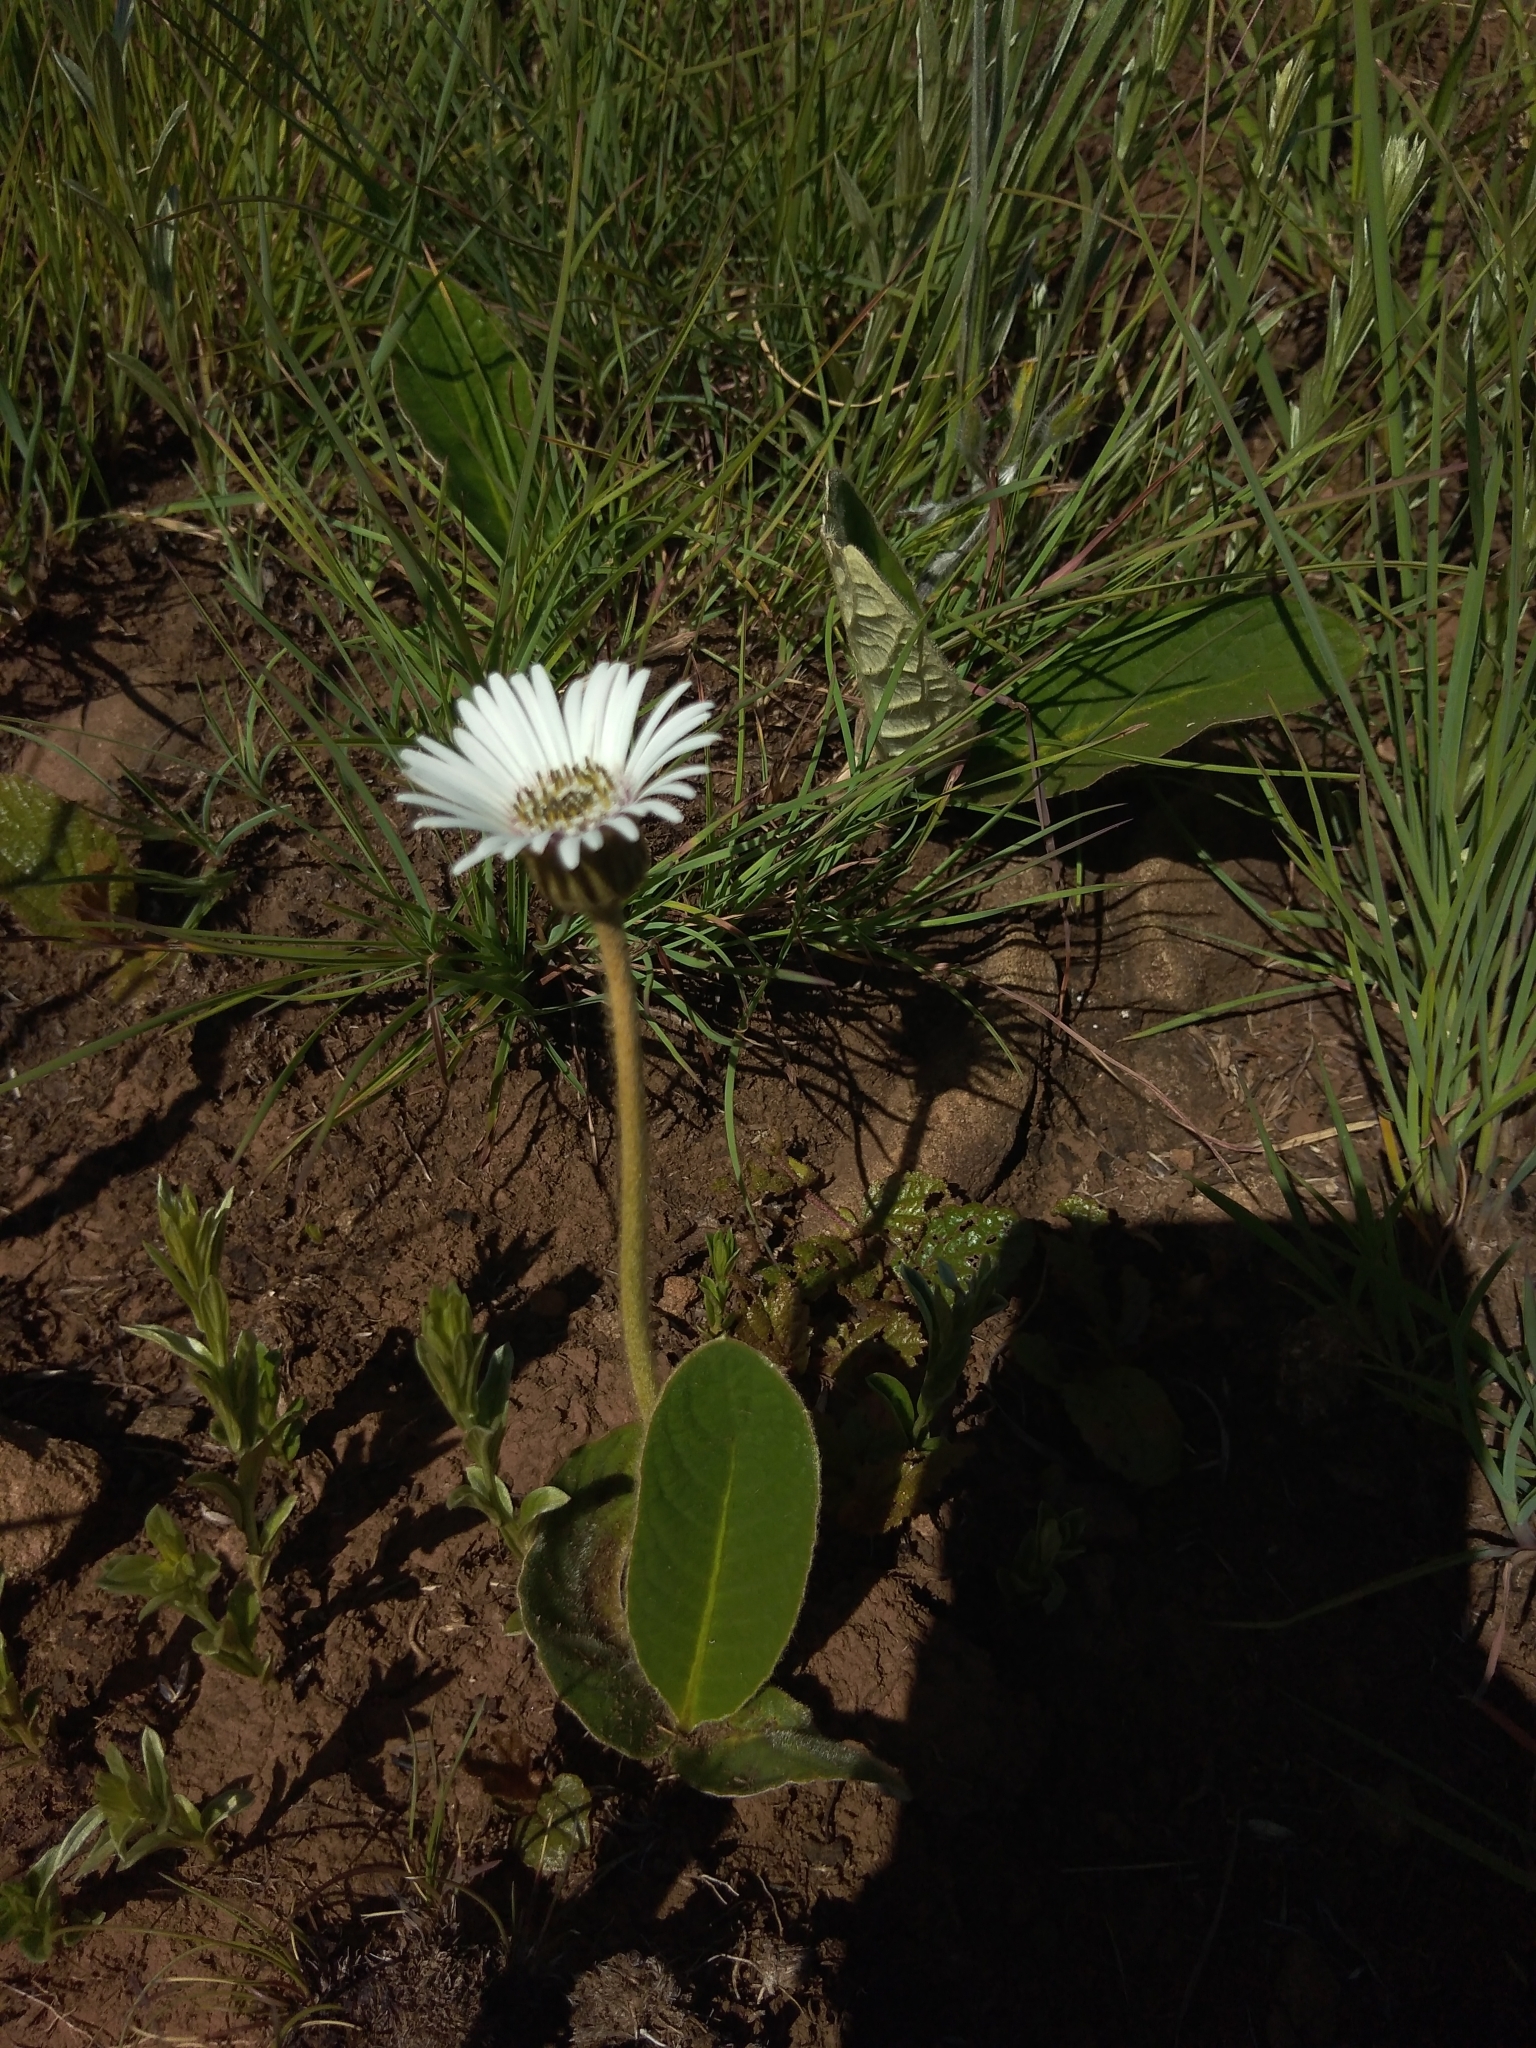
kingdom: Plantae
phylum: Tracheophyta
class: Magnoliopsida
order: Asterales
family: Asteraceae
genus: Gerbera
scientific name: Gerbera ambigua
